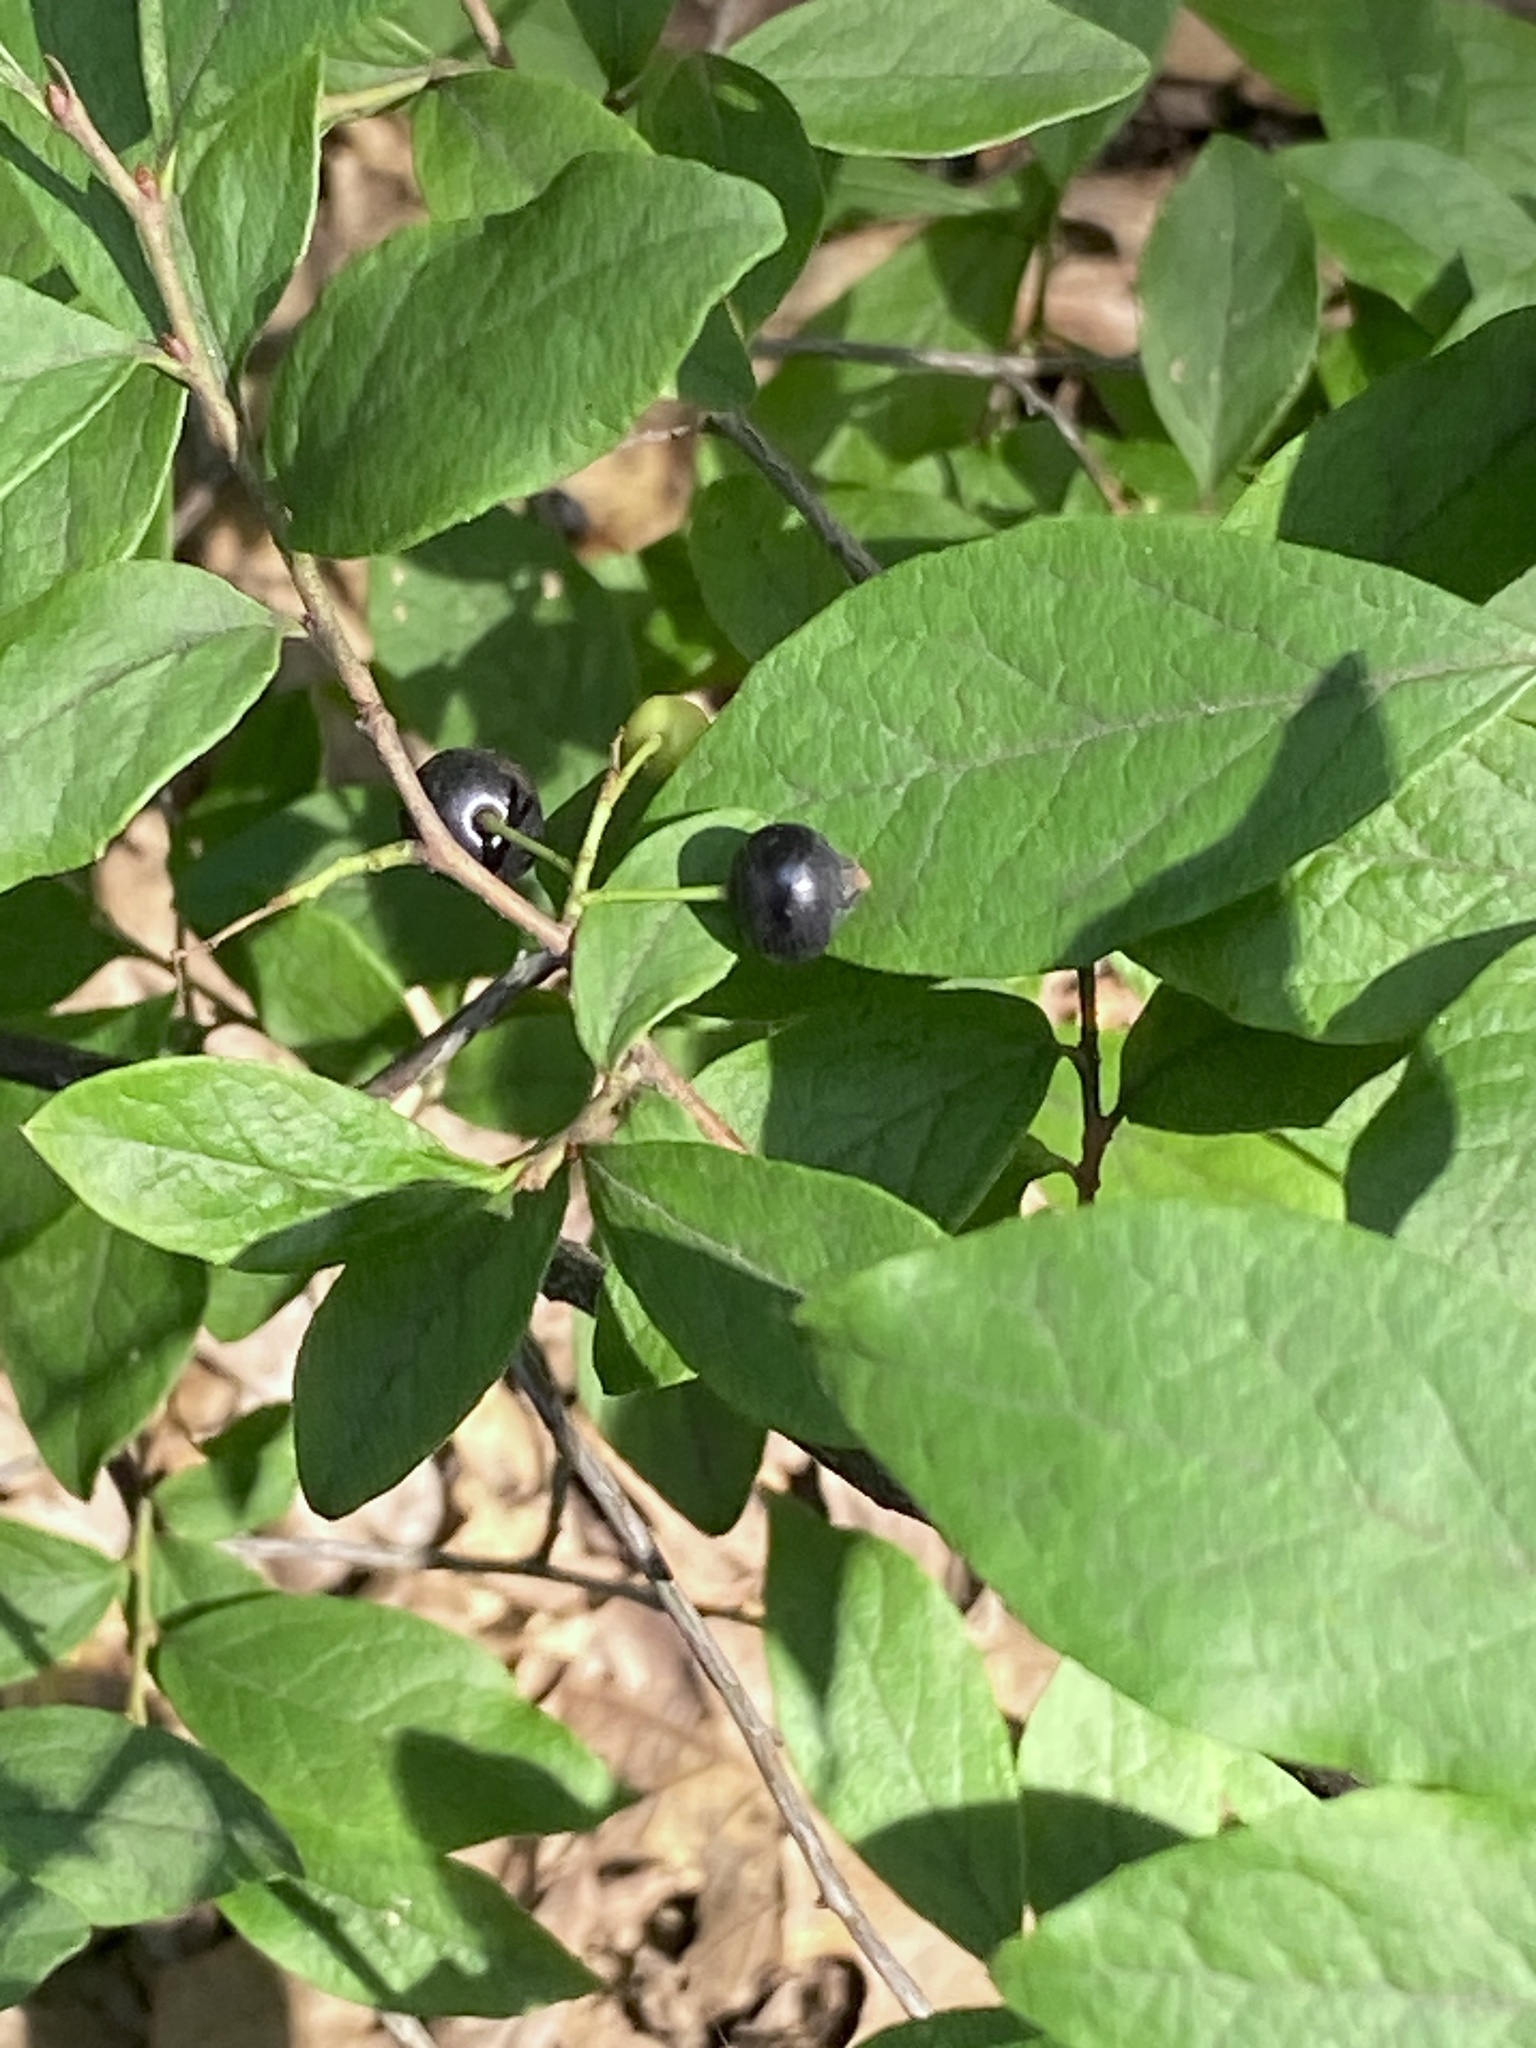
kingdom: Plantae
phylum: Tracheophyta
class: Magnoliopsida
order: Ericales
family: Ericaceae
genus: Gaylussacia
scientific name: Gaylussacia baccata
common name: Black huckleberry
